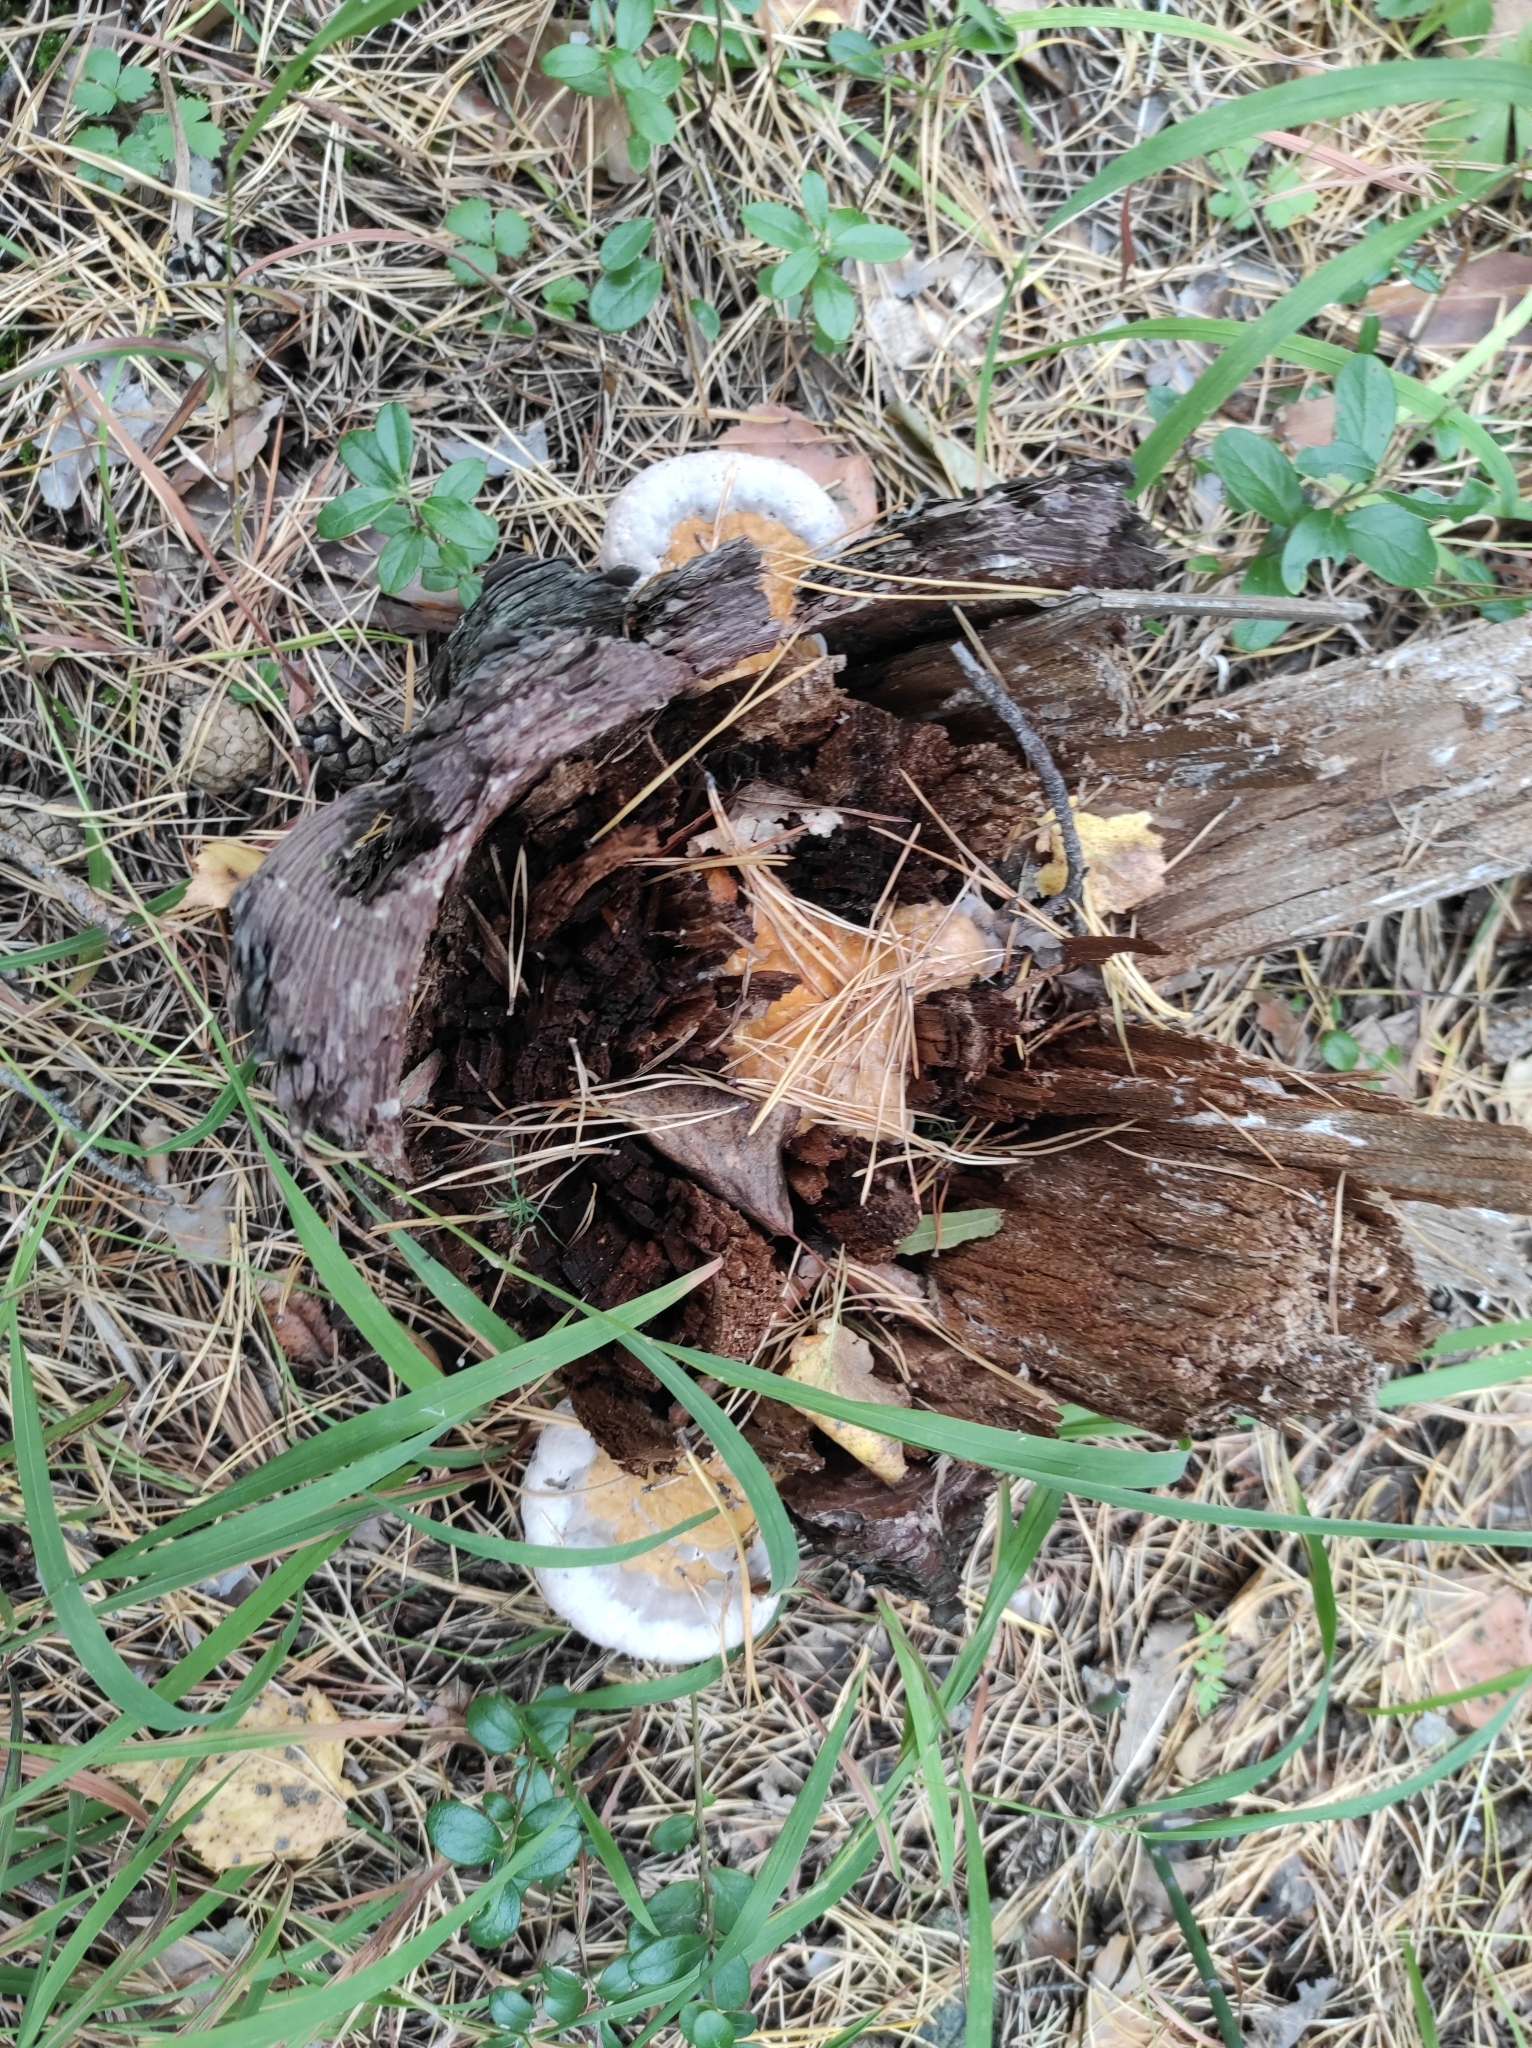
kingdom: Fungi
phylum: Basidiomycota
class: Agaricomycetes
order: Polyporales
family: Fomitopsidaceae
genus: Fomitopsis
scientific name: Fomitopsis pinicola
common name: Red-belted bracket
